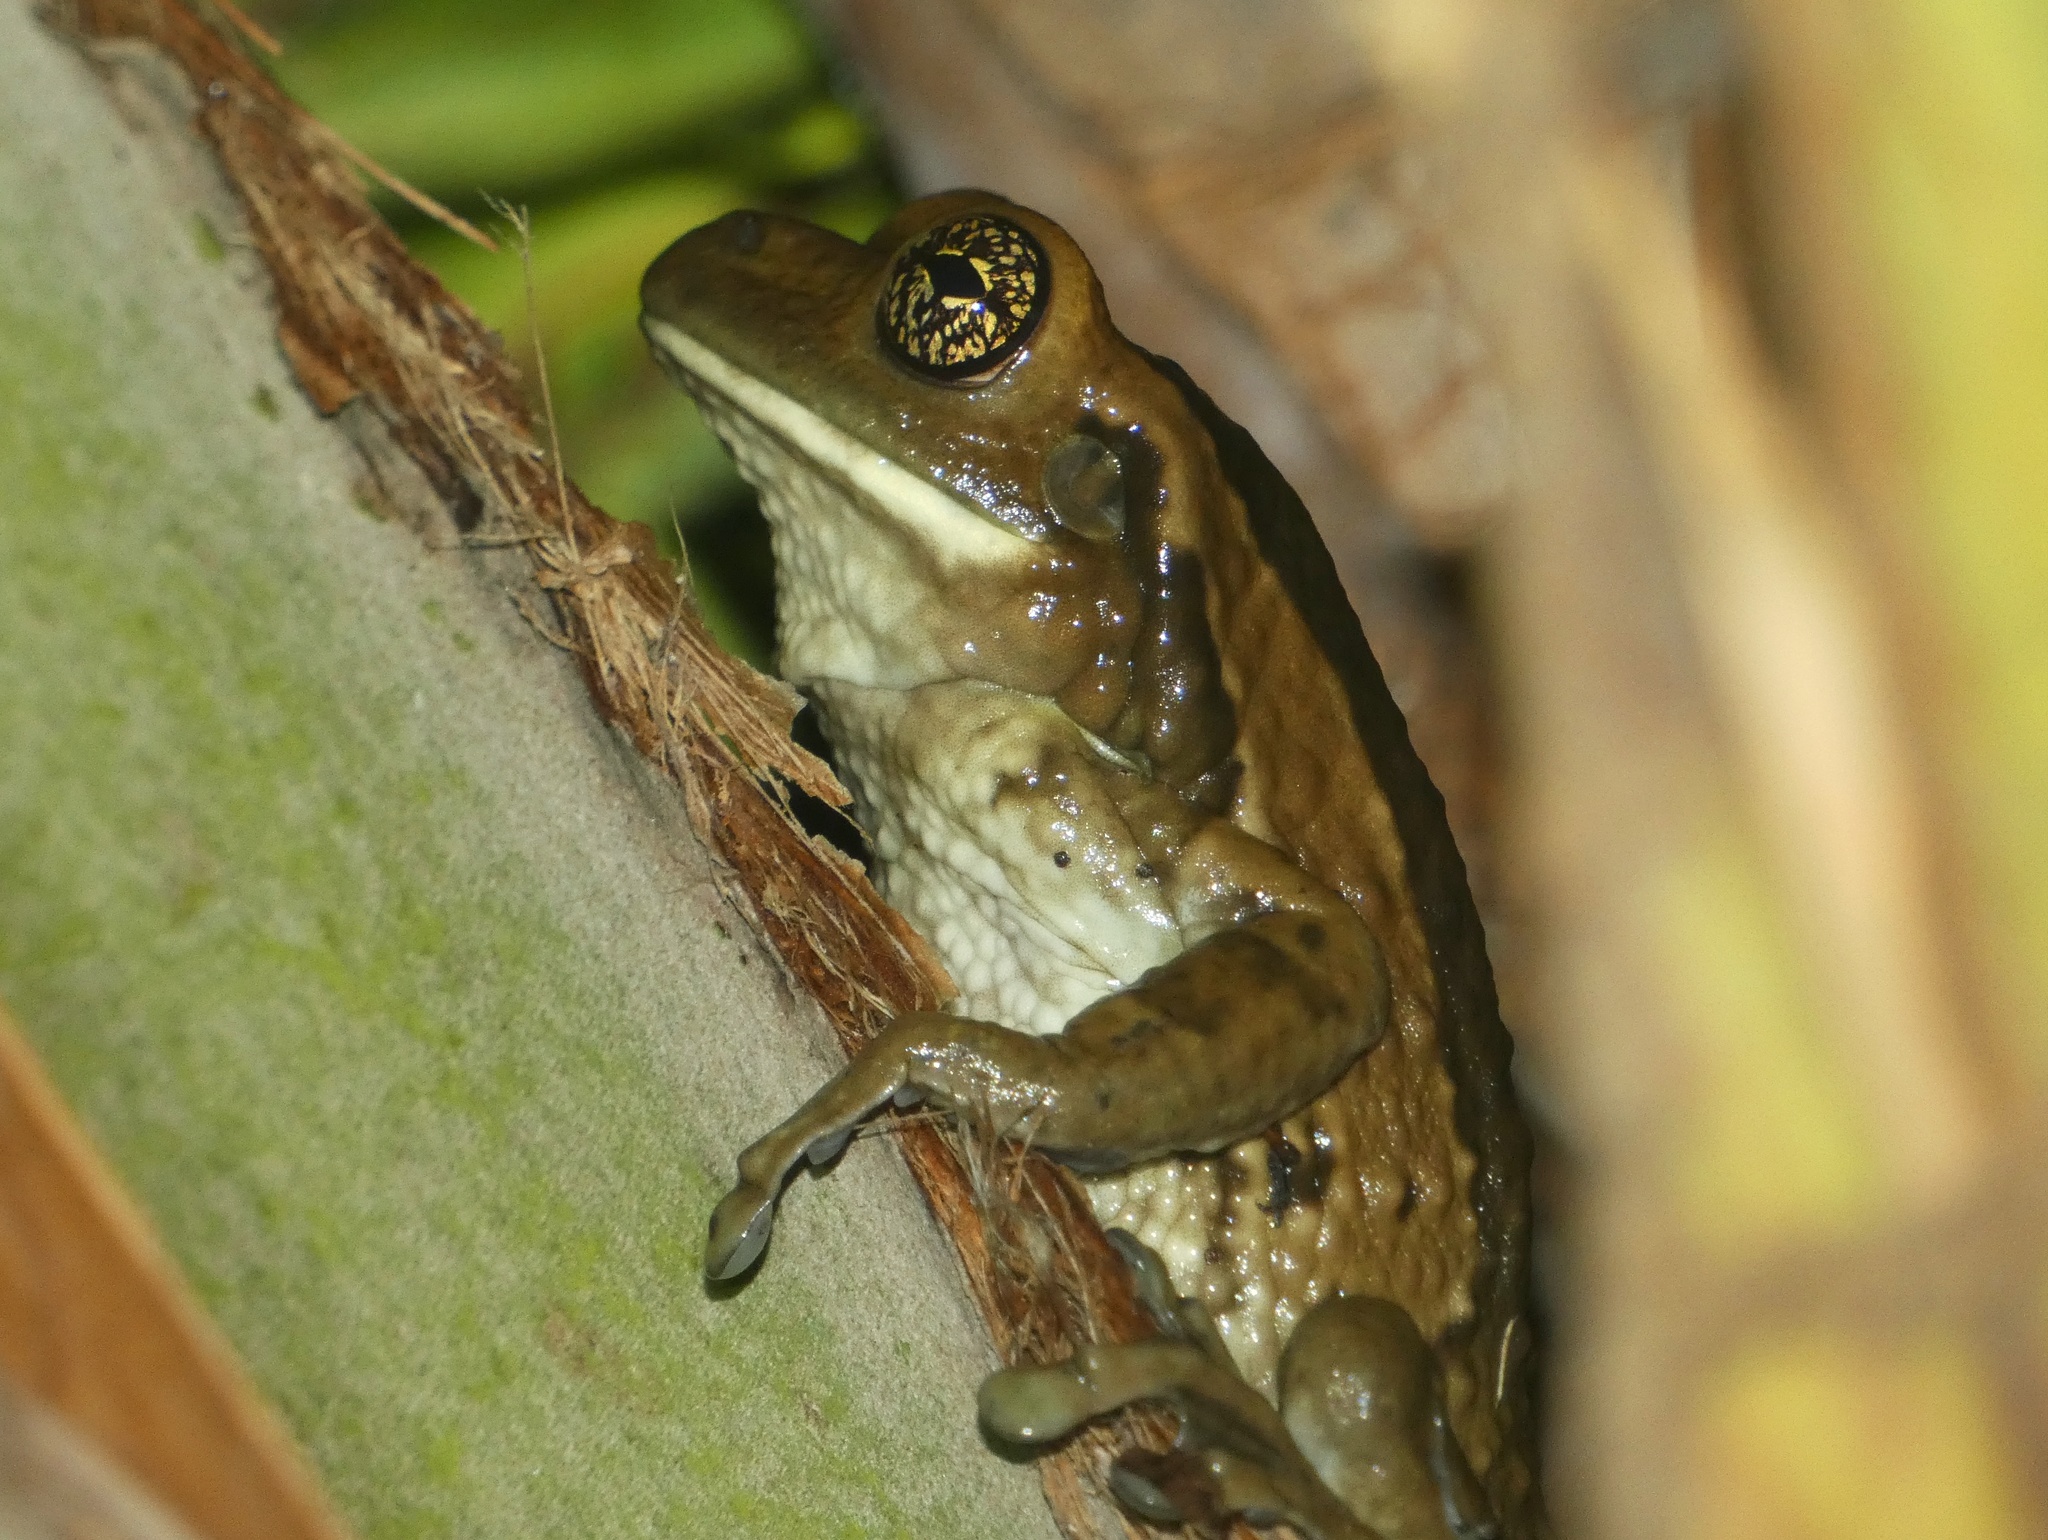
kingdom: Animalia
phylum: Chordata
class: Amphibia
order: Anura
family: Hylidae
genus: Trachycephalus
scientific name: Trachycephalus vermiculatus
